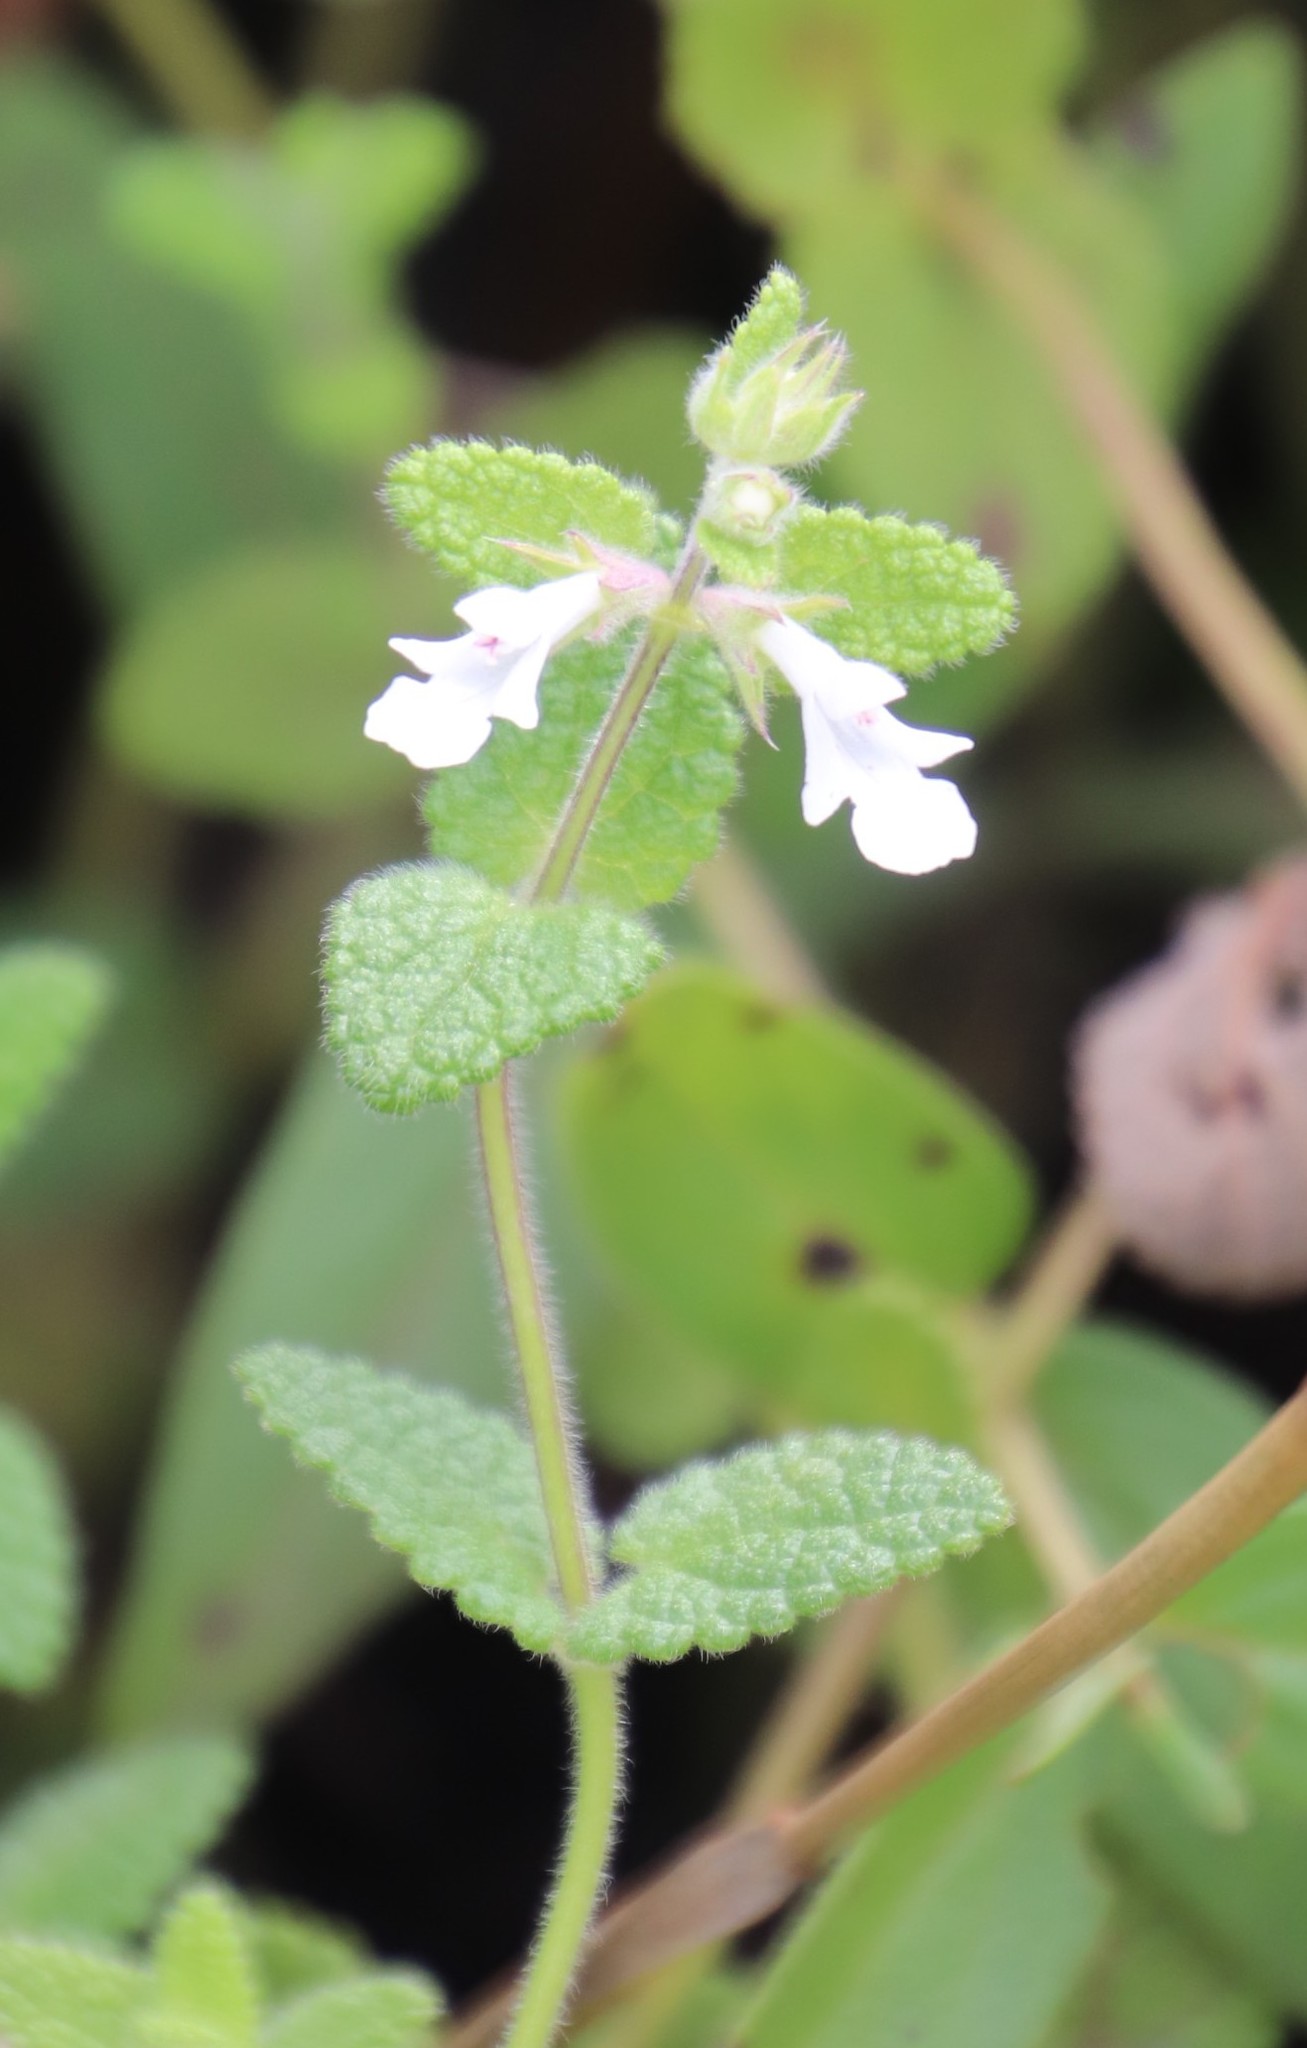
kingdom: Plantae
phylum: Tracheophyta
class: Magnoliopsida
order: Lamiales
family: Lamiaceae
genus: Stachys
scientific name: Stachys aethiopica
